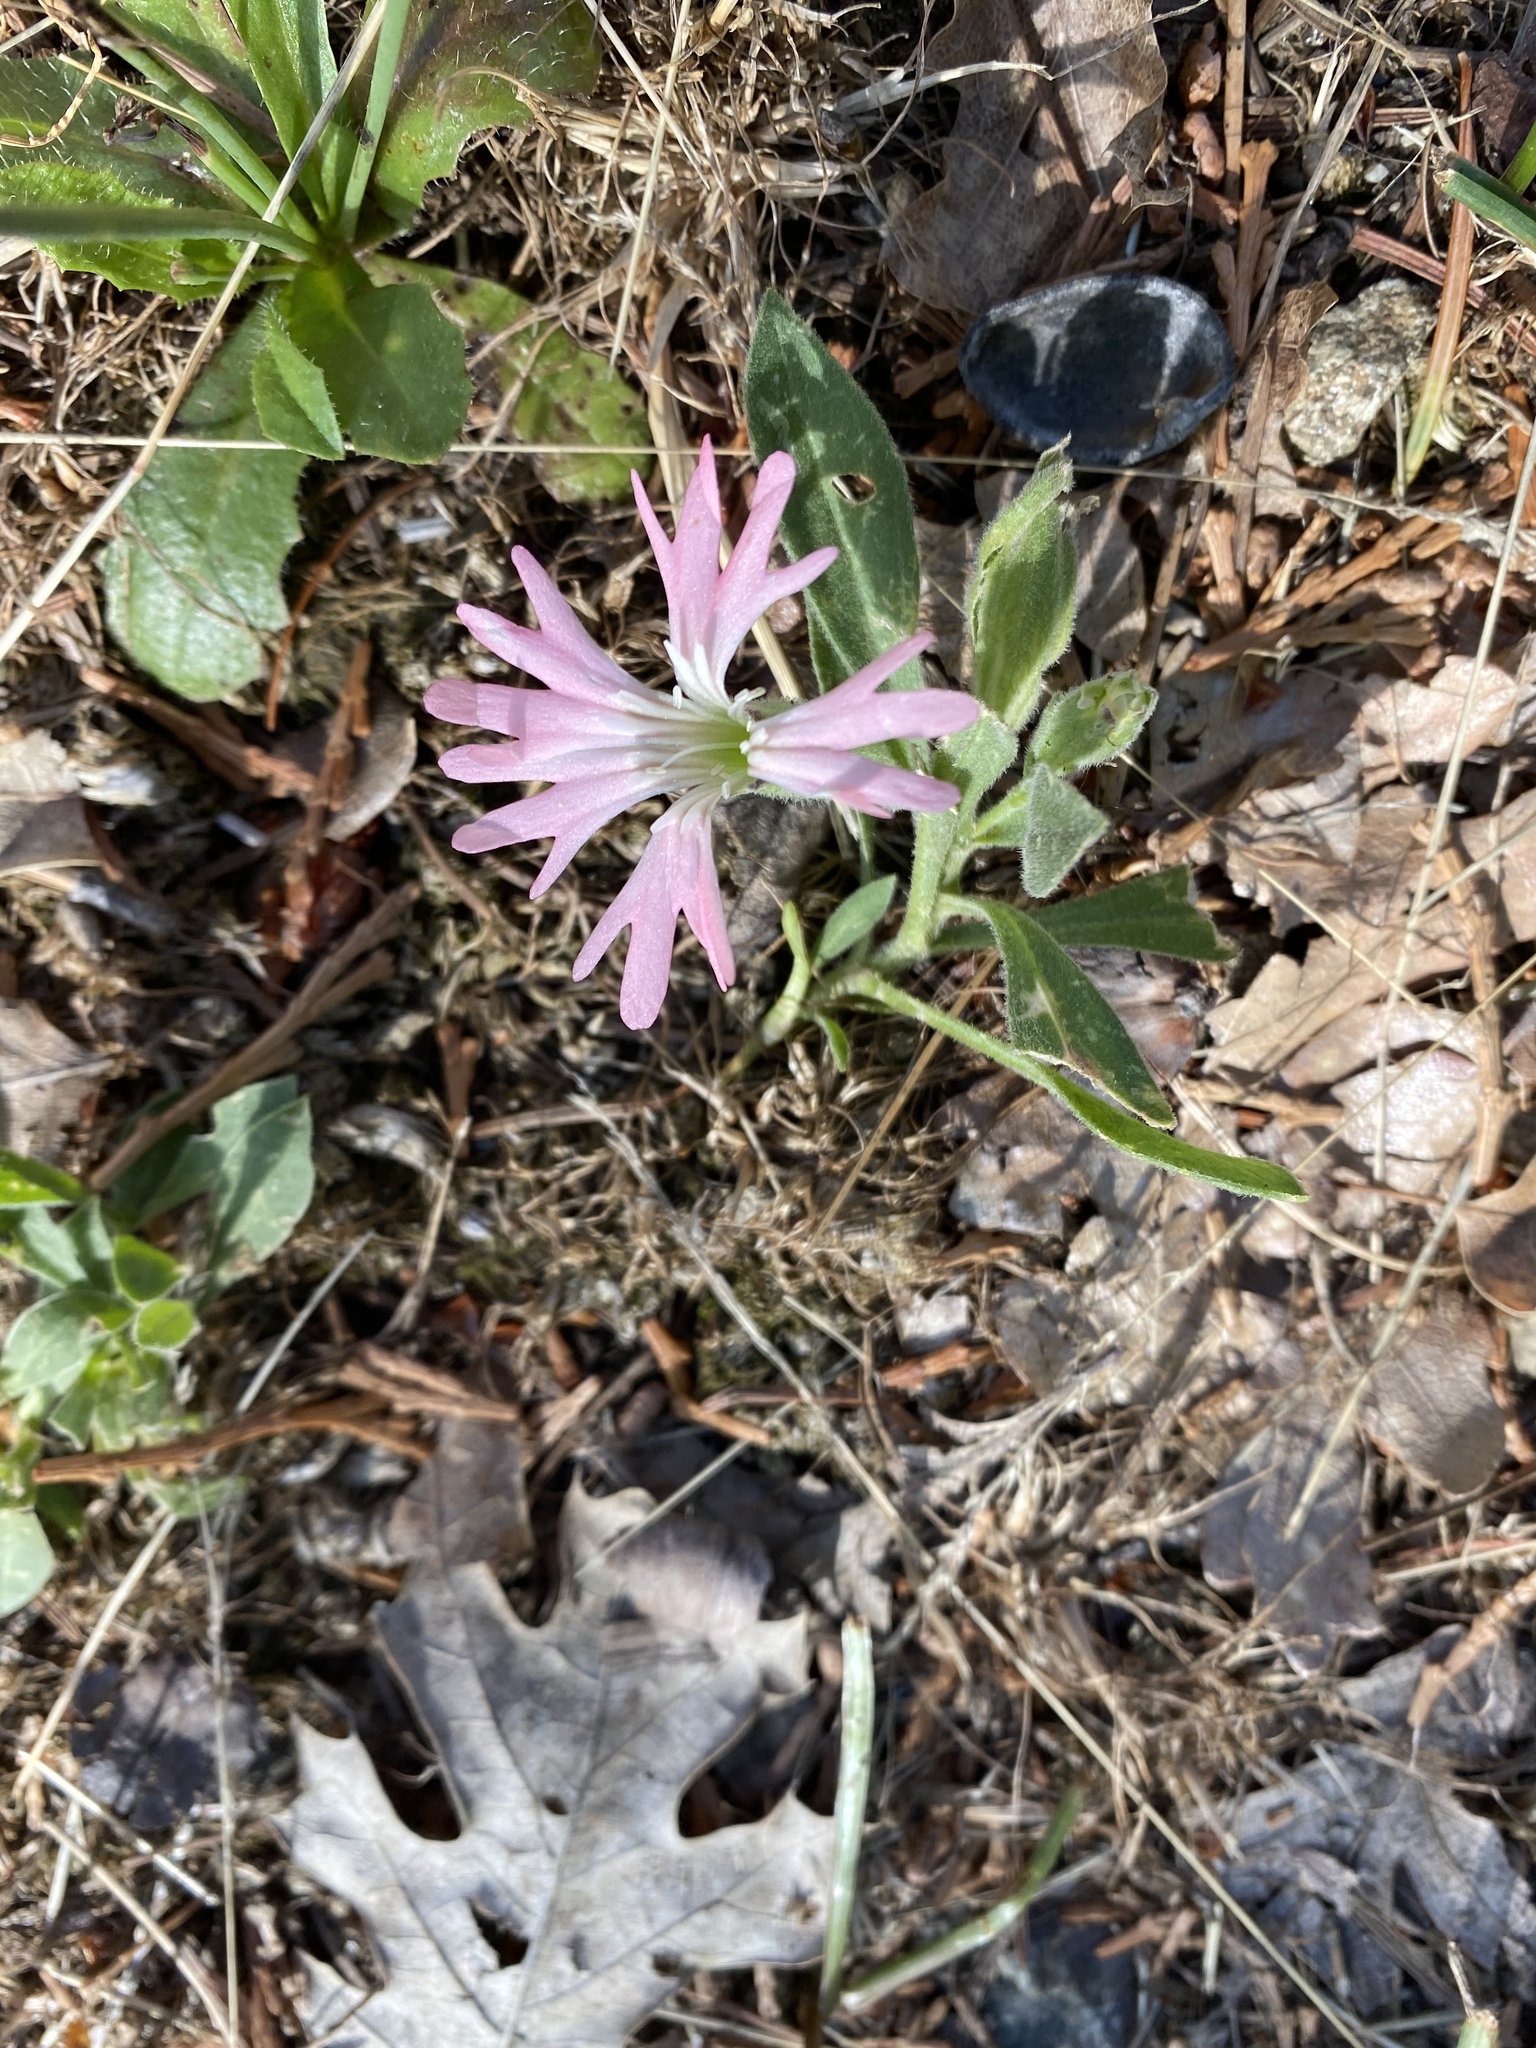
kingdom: Plantae
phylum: Tracheophyta
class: Magnoliopsida
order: Caryophyllales
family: Caryophyllaceae
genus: Silene
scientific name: Silene hookeri
